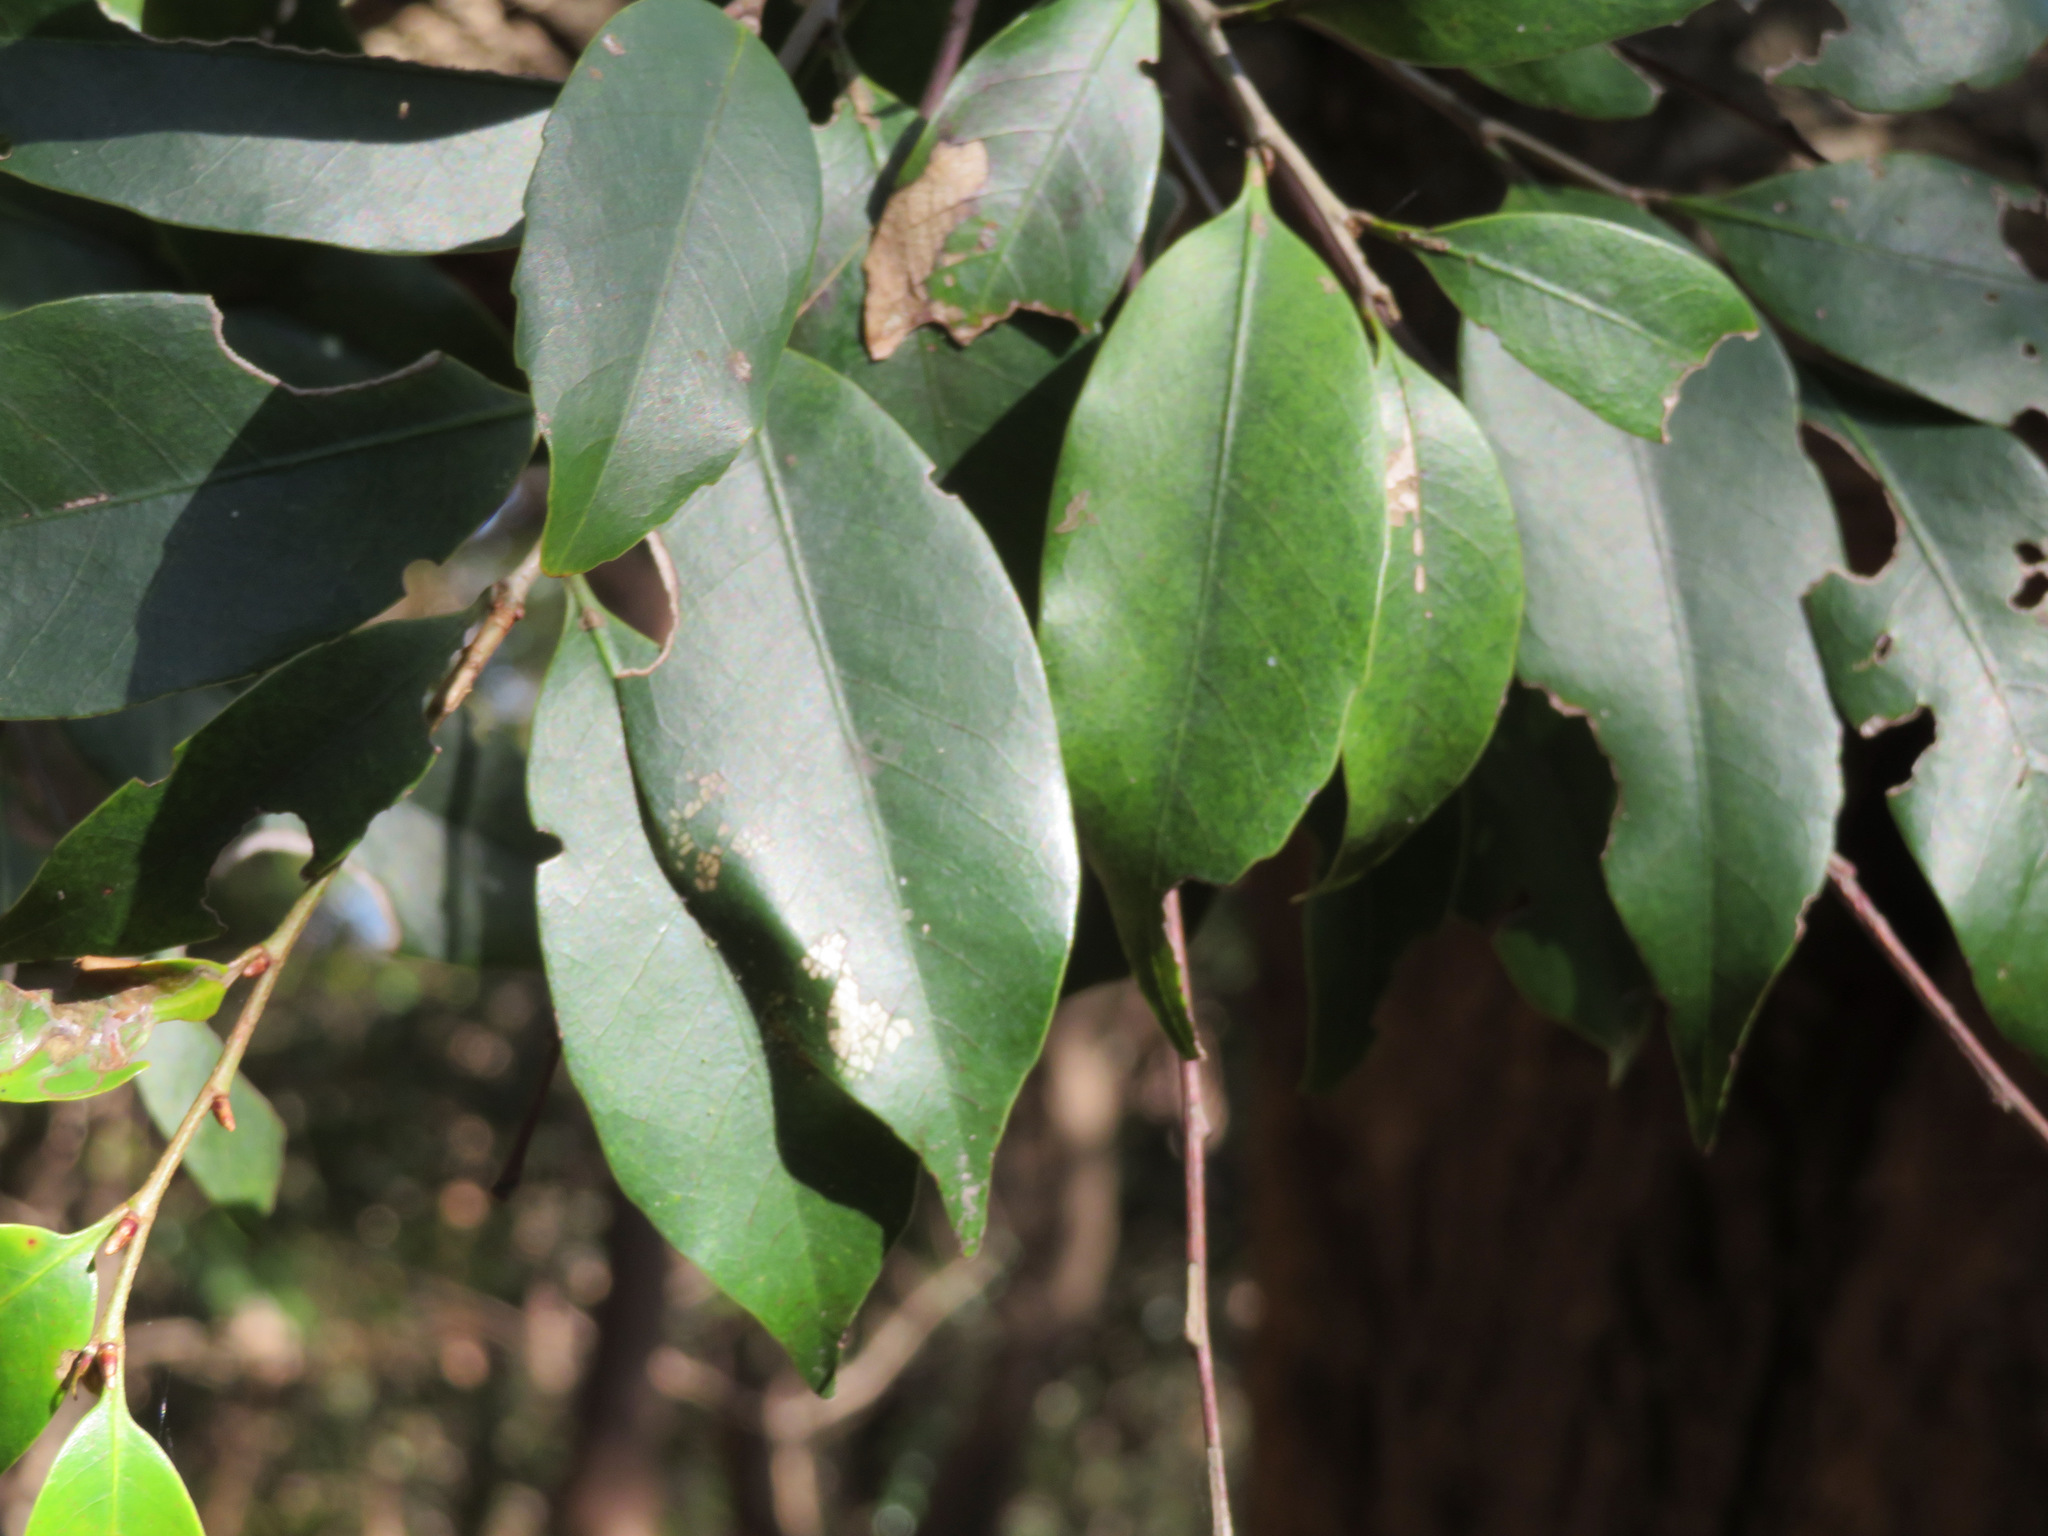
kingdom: Plantae
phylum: Tracheophyta
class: Magnoliopsida
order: Fagales
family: Fagaceae
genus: Castanopsis
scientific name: Castanopsis sieboldii
